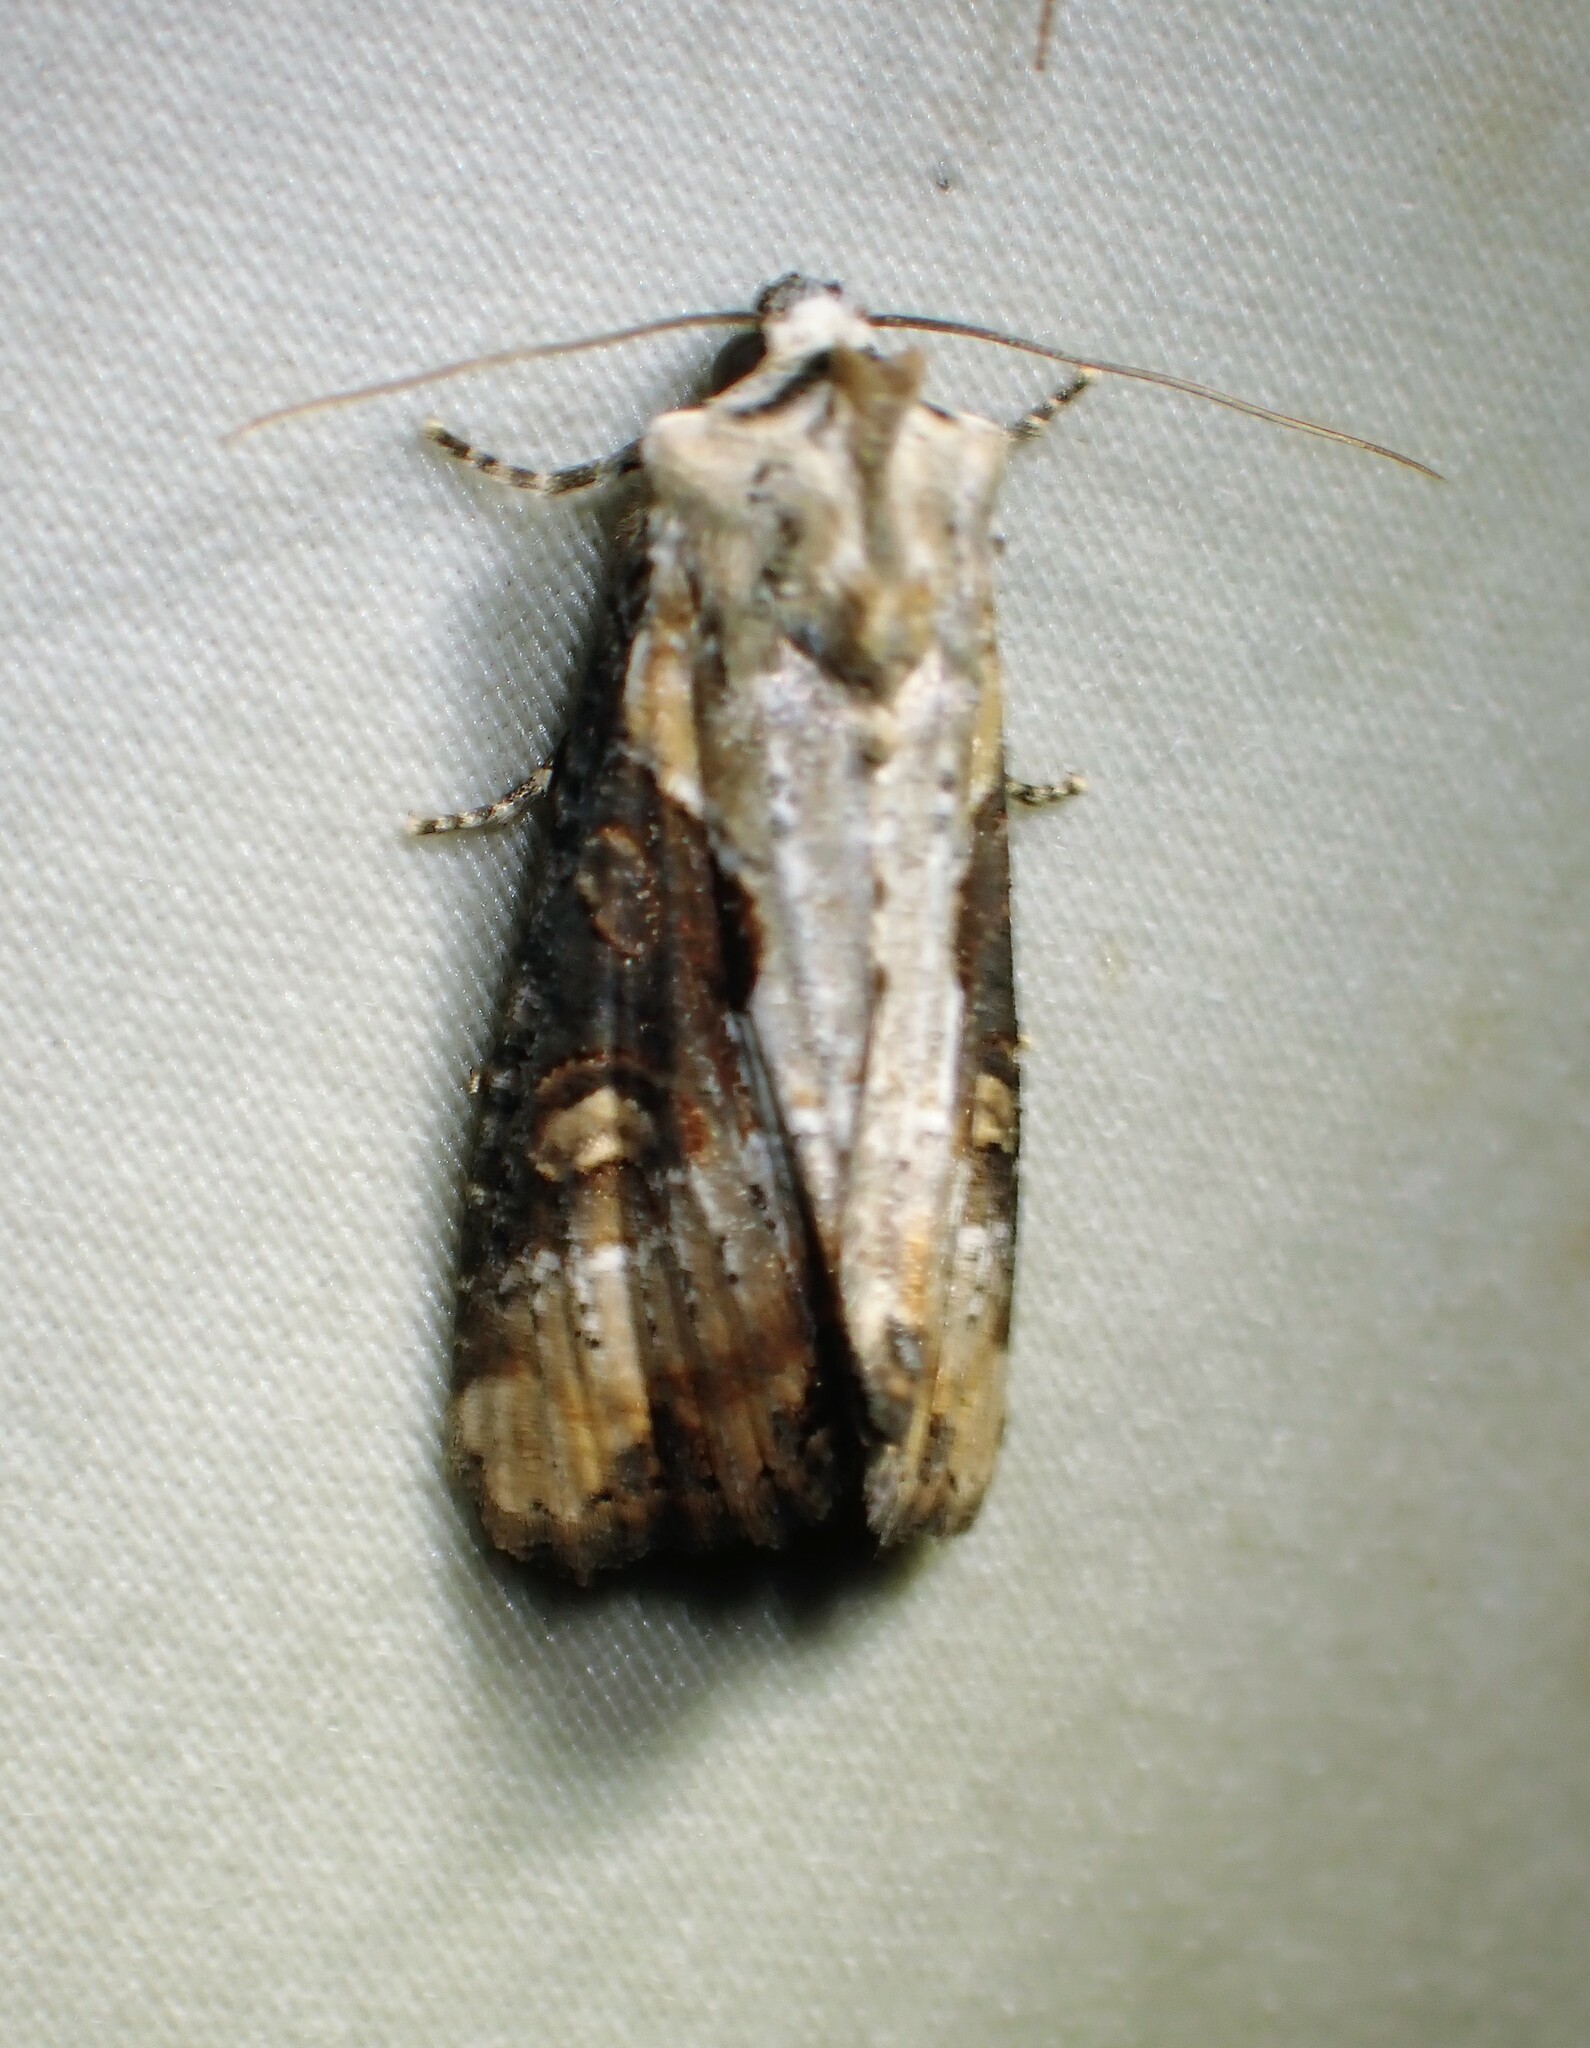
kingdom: Animalia
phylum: Arthropoda
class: Insecta
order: Lepidoptera
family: Noctuidae
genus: Lateroligia
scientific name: Lateroligia ophiogramma
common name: Double lobed
